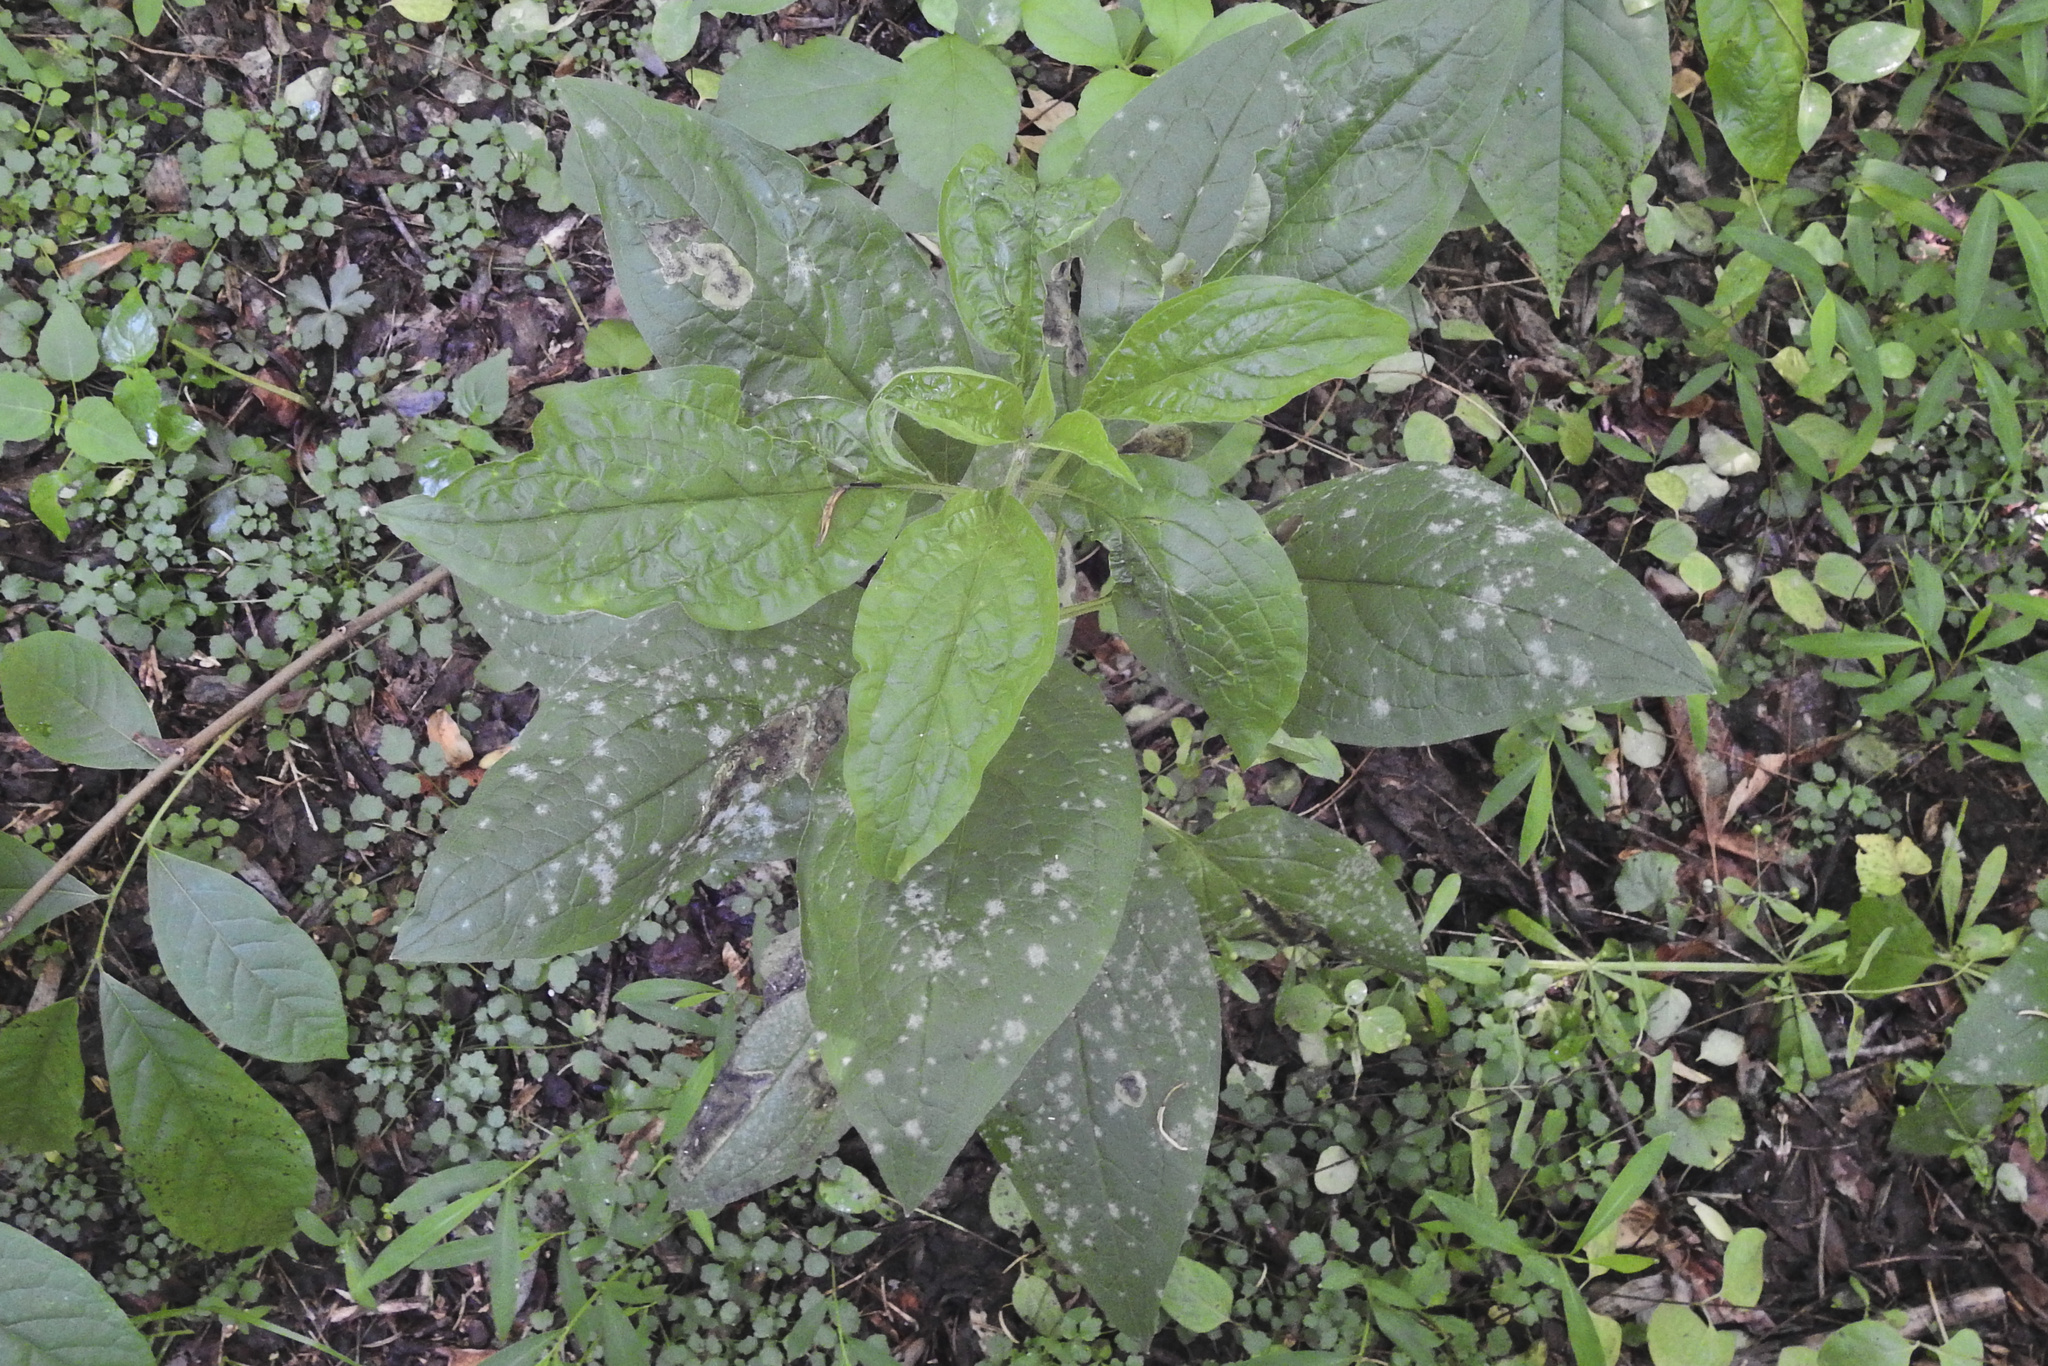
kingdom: Plantae
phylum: Tracheophyta
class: Magnoliopsida
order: Boraginales
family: Boraginaceae
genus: Hackelia
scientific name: Hackelia virginiana
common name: Beggar's-lice
